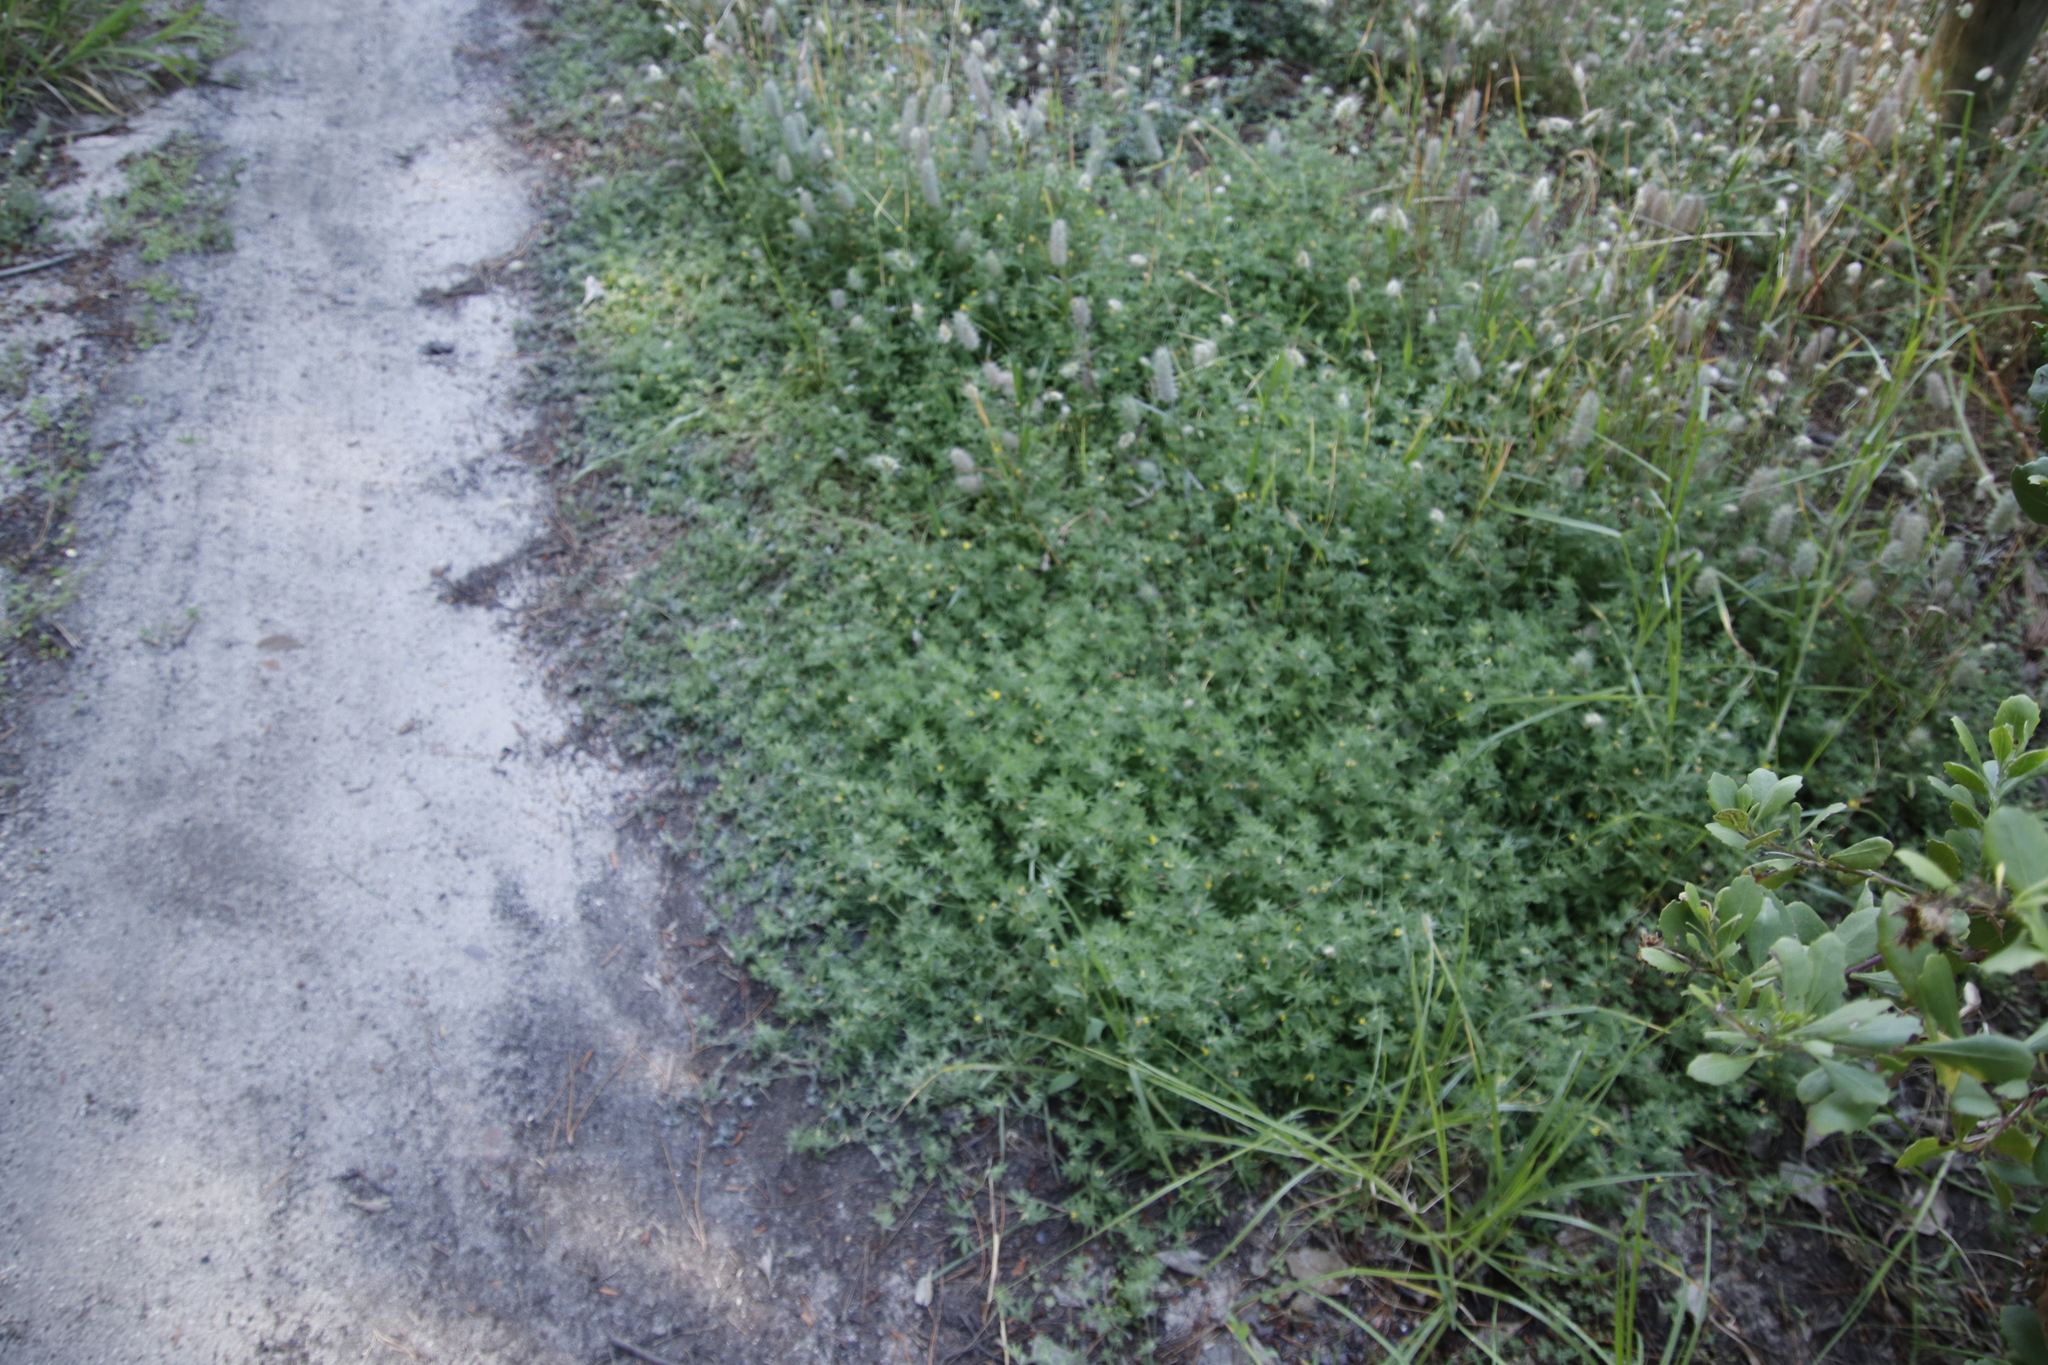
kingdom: Plantae
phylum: Tracheophyta
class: Magnoliopsida
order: Fabales
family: Fabaceae
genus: Lotus
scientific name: Lotus subbiflorus
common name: Hairy bird's-foot trefoil
